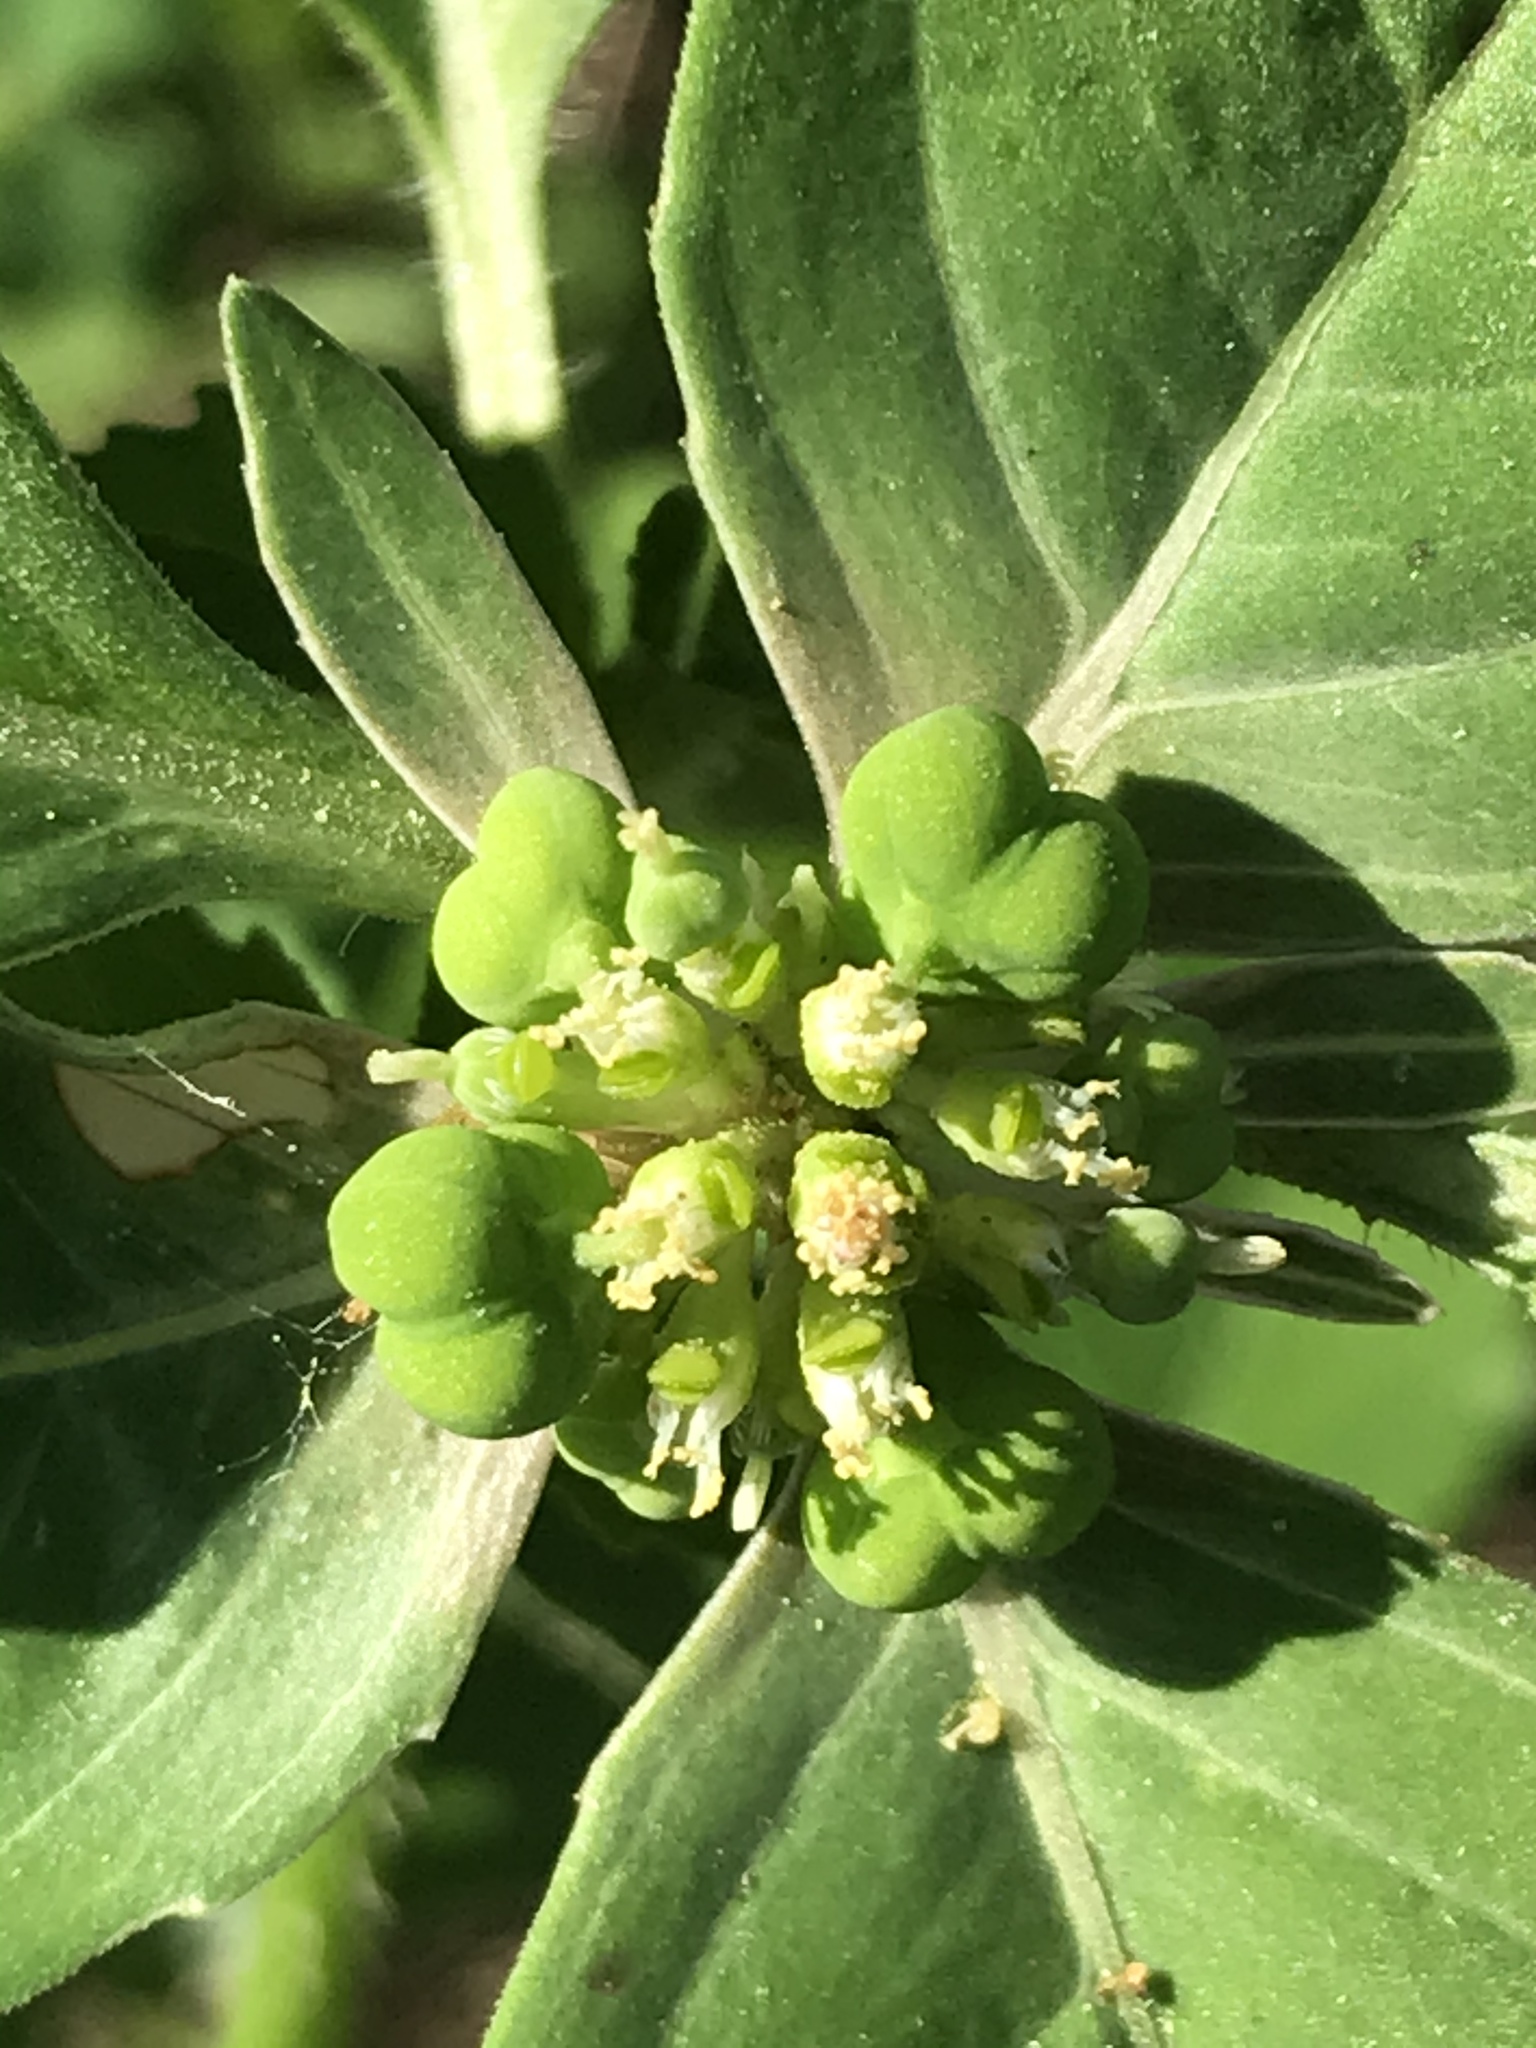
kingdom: Plantae
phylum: Tracheophyta
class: Magnoliopsida
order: Malpighiales
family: Euphorbiaceae
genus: Euphorbia
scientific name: Euphorbia dentata
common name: Dentate spurge
